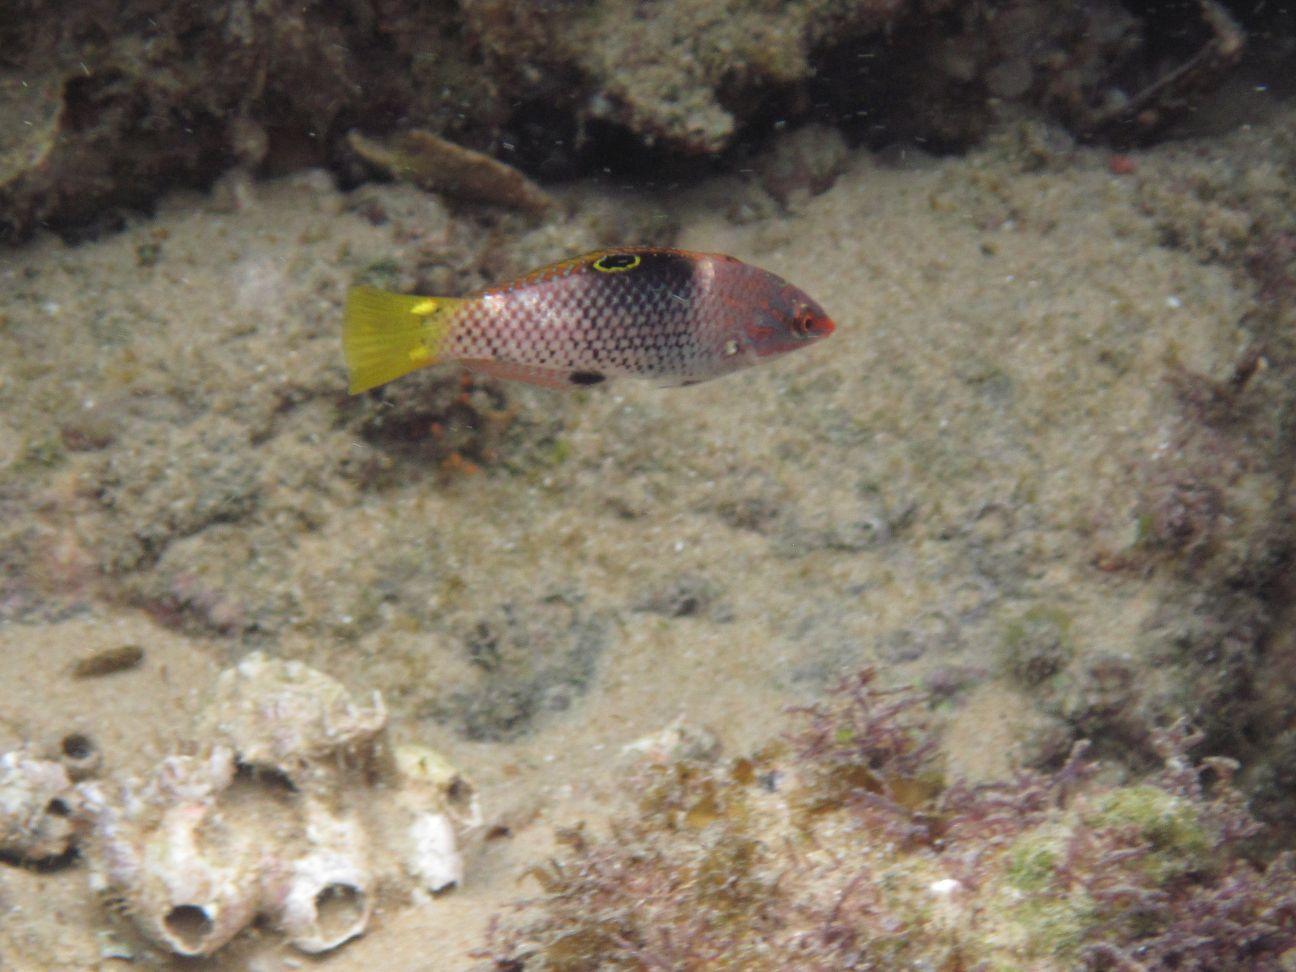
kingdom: Animalia
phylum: Chordata
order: Perciformes
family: Labridae
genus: Halichoeres
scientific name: Halichoeres hortulanus
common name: Checkerboard wrasse
